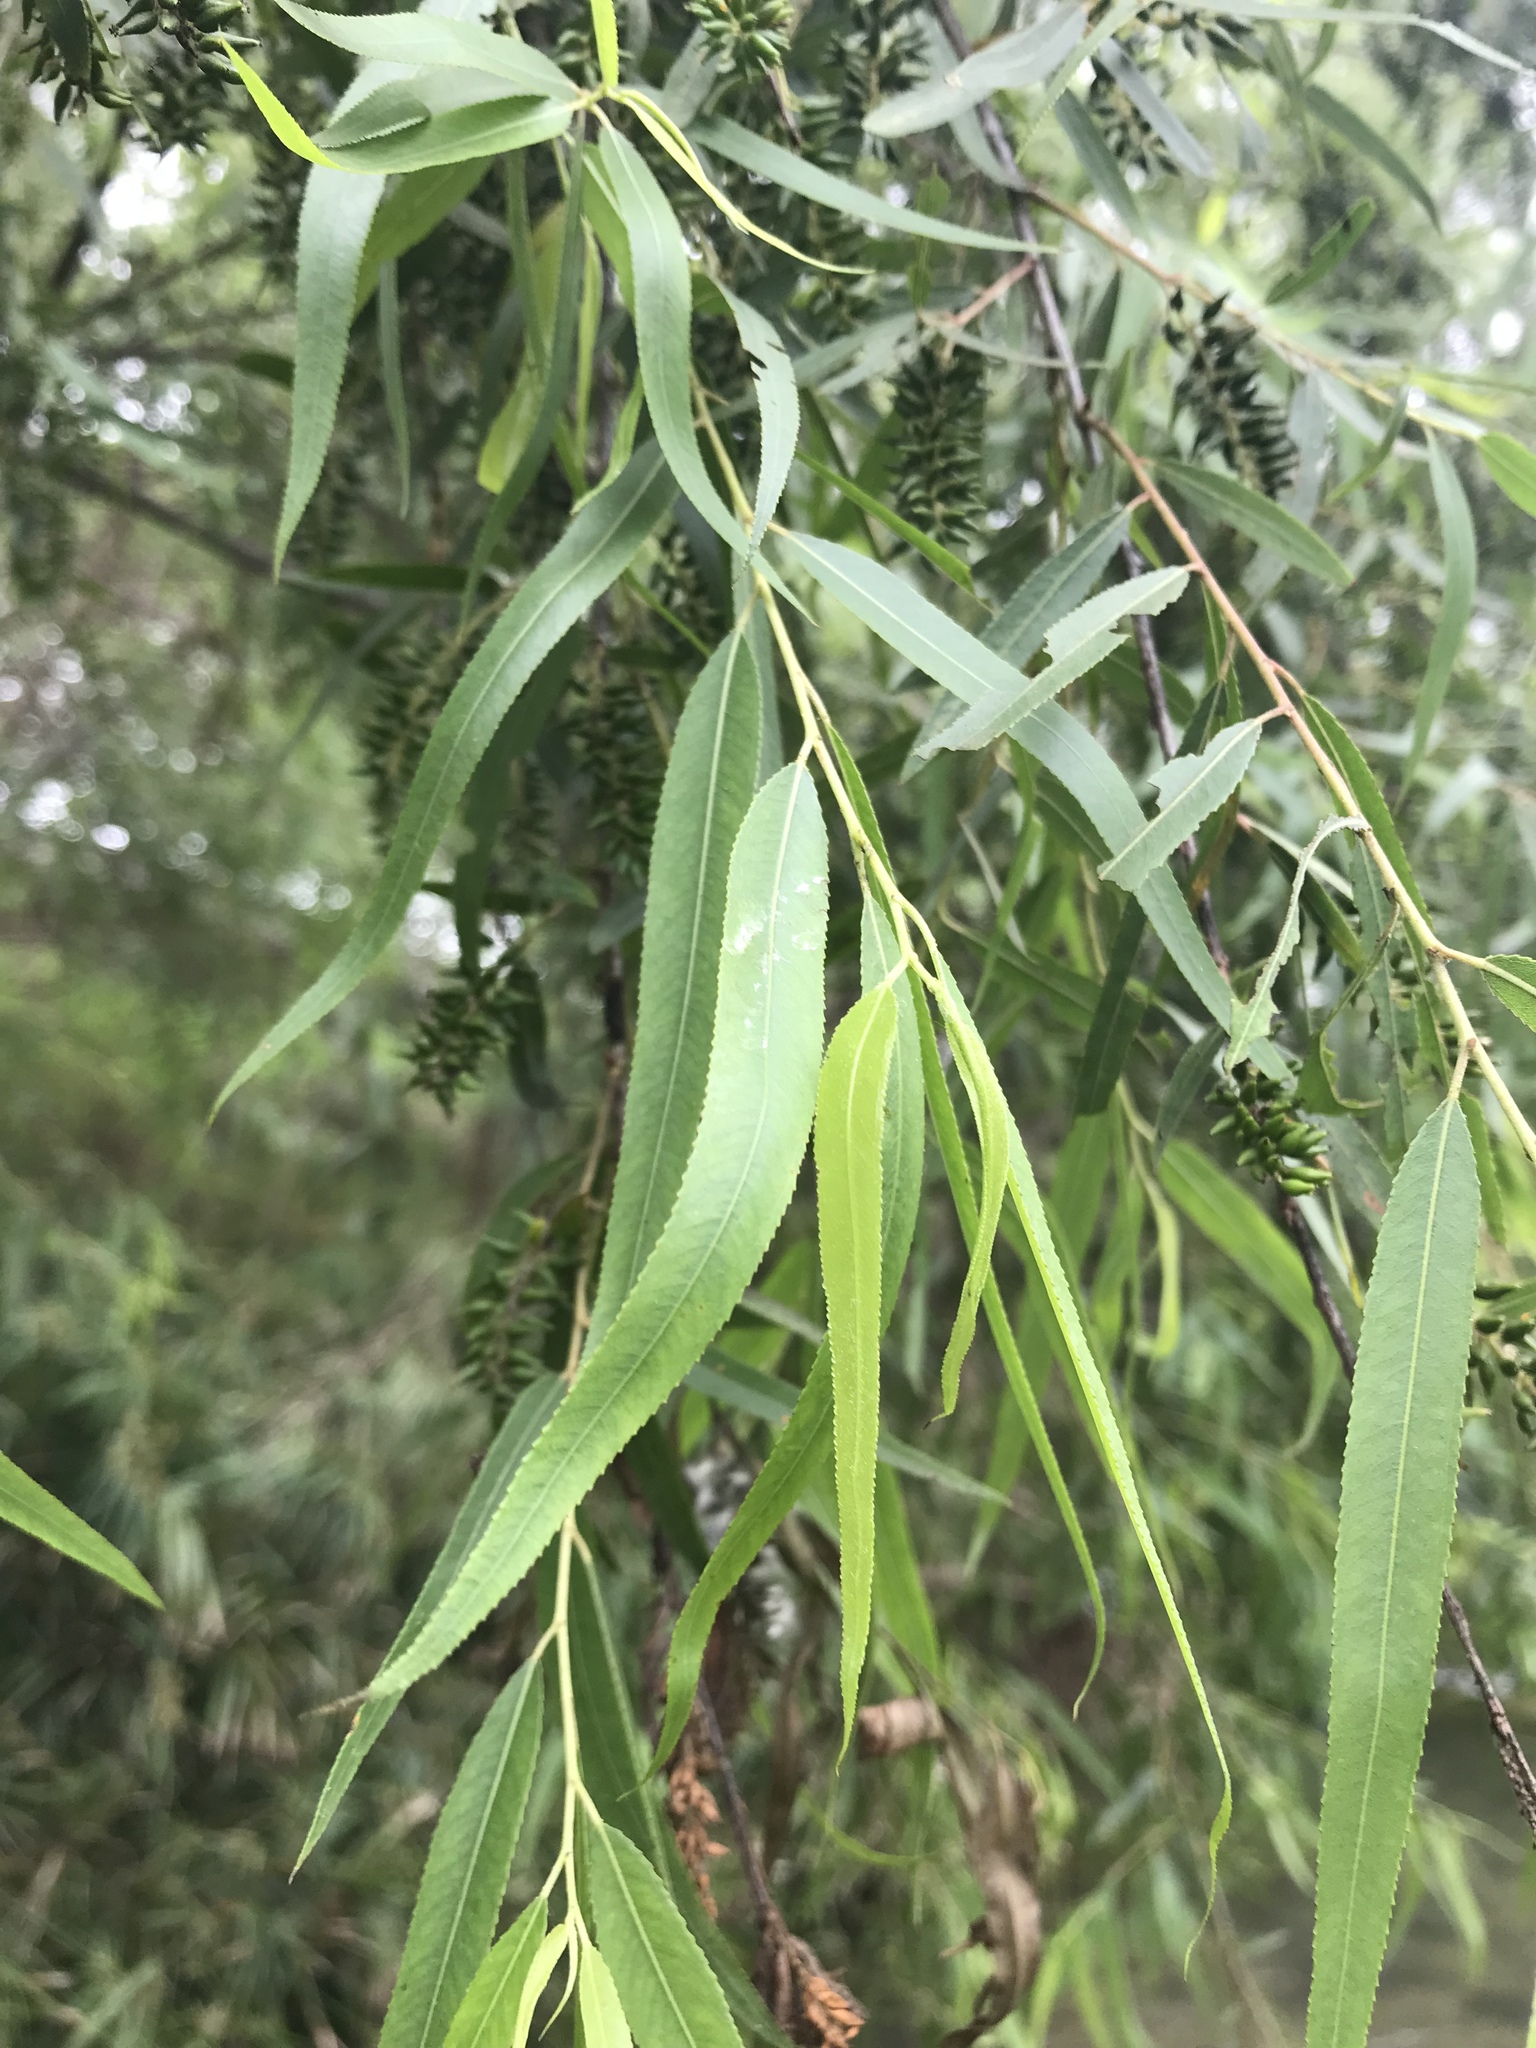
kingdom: Plantae
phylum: Tracheophyta
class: Magnoliopsida
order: Malpighiales
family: Salicaceae
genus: Salix
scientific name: Salix nigra
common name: Black willow
